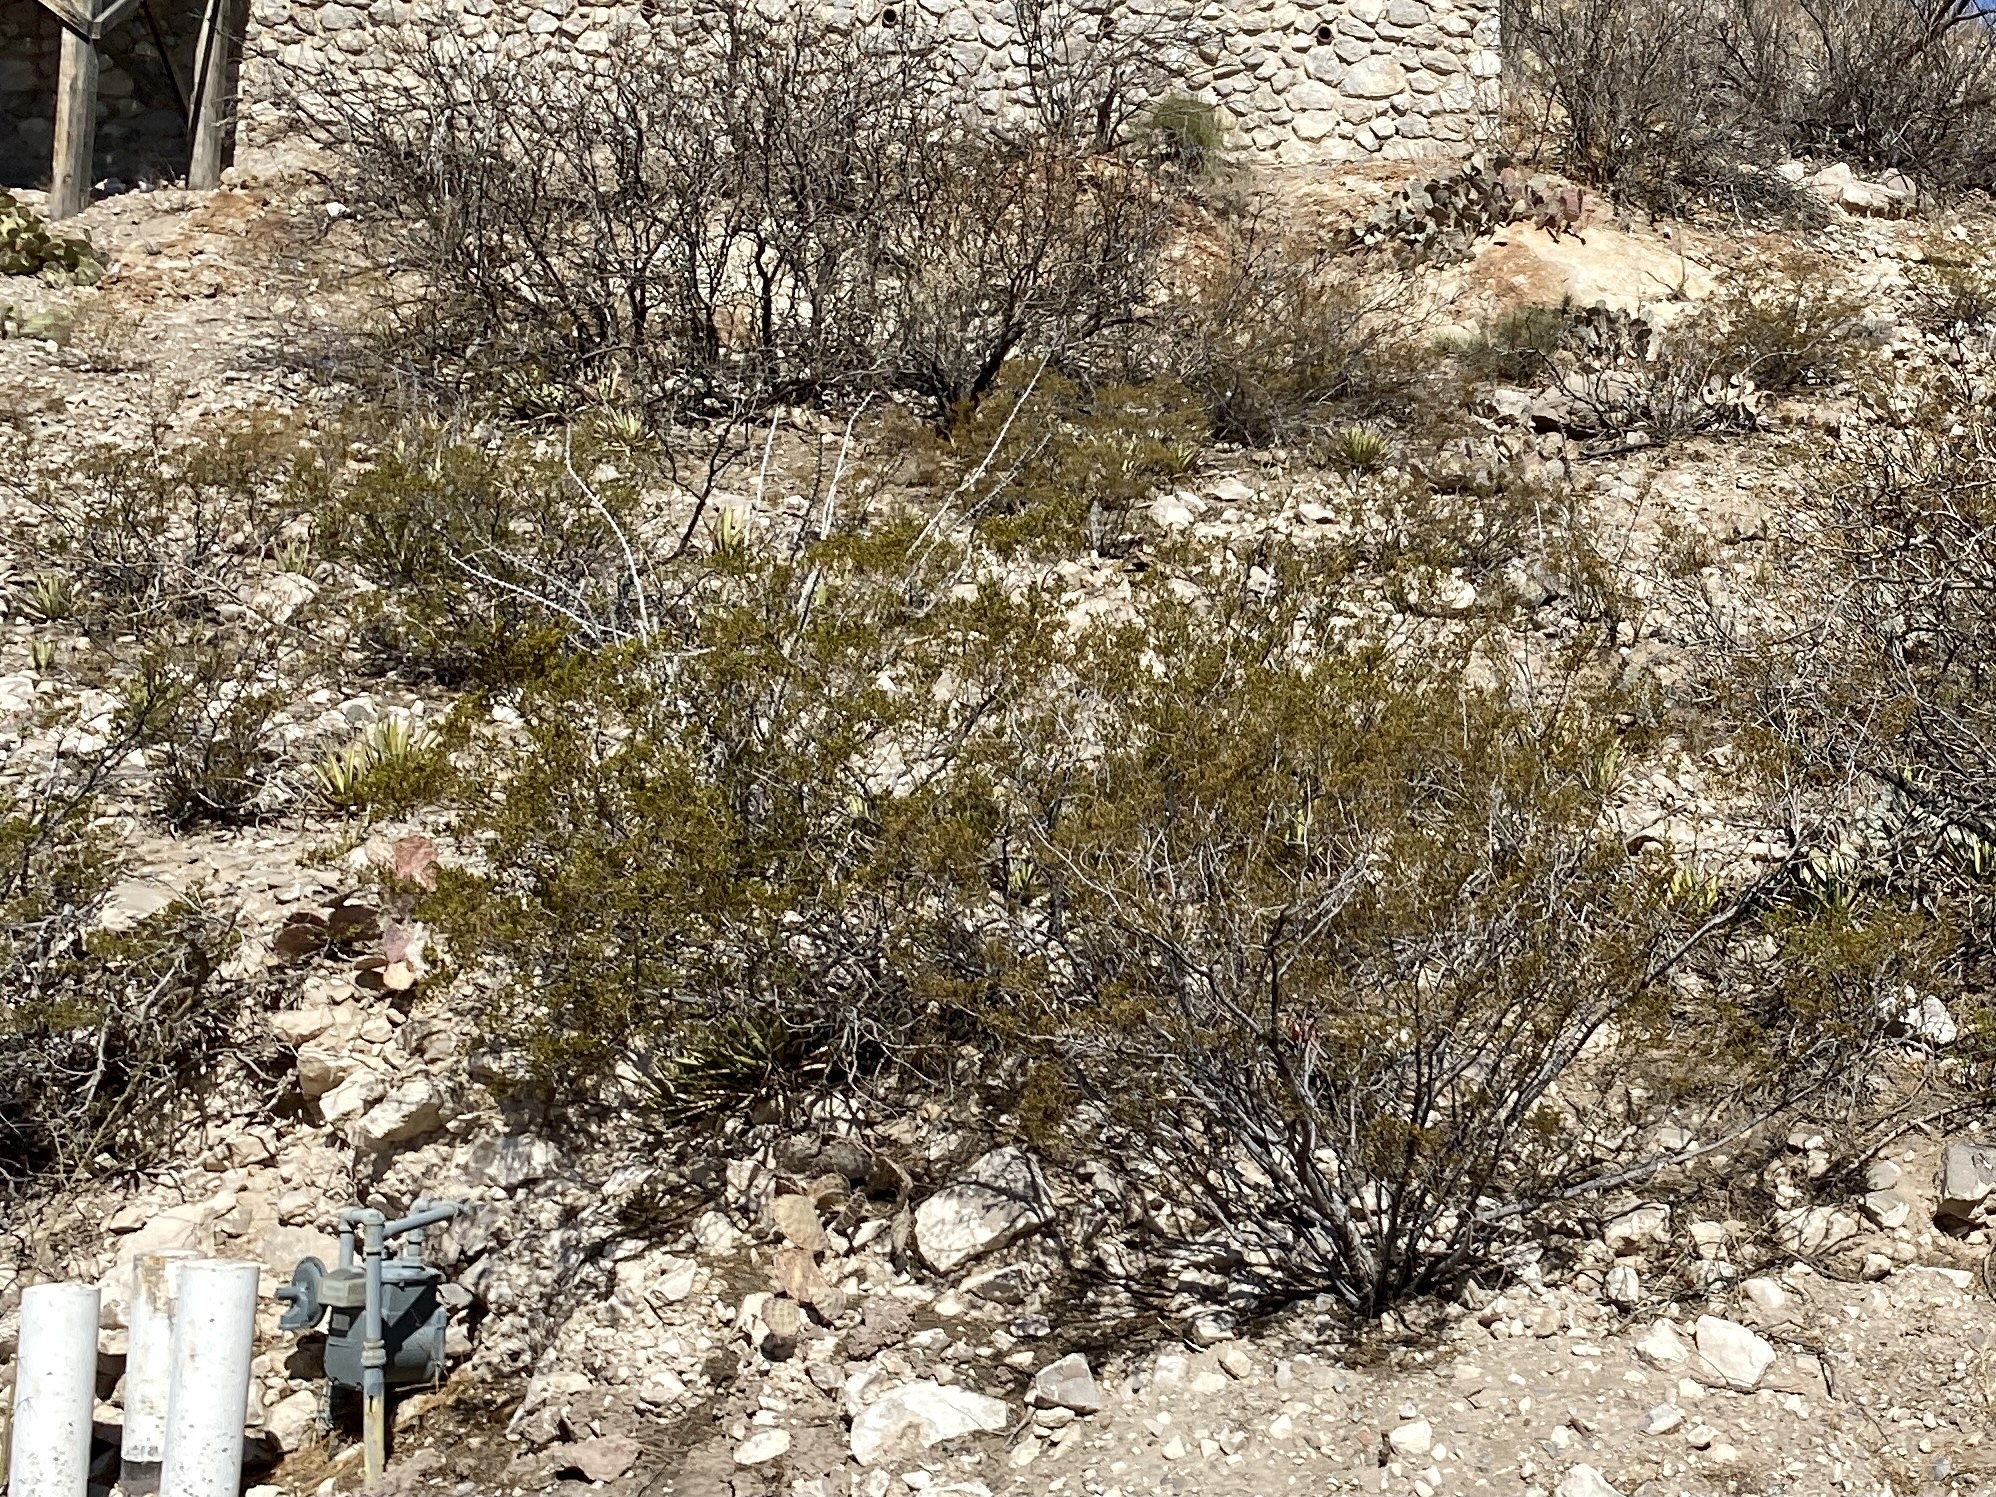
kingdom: Plantae
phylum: Tracheophyta
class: Magnoliopsida
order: Zygophyllales
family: Zygophyllaceae
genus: Larrea
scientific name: Larrea tridentata
